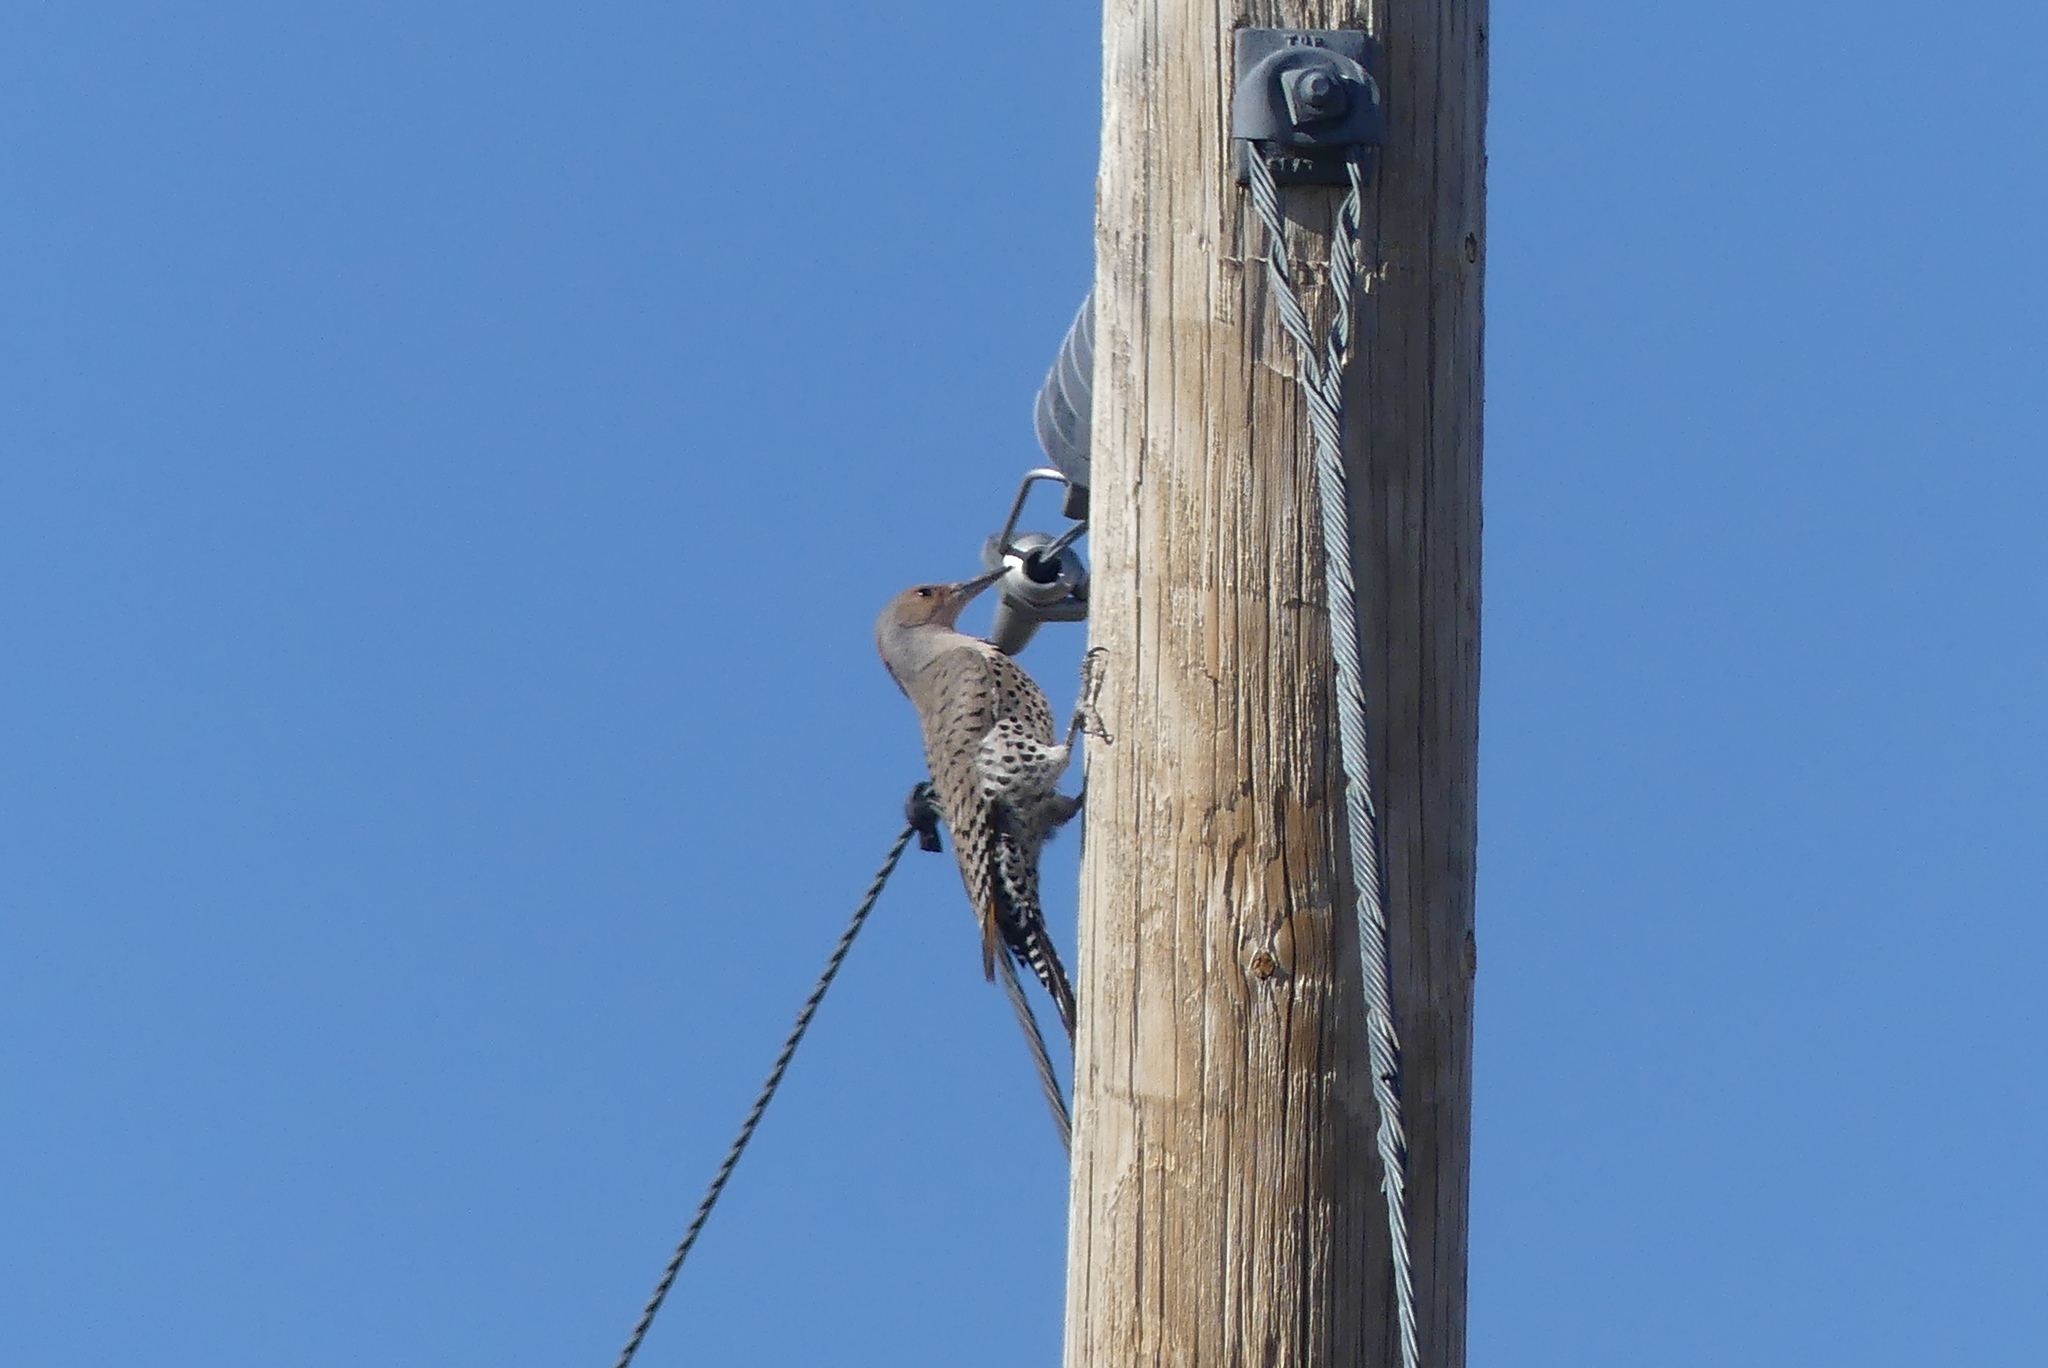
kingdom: Animalia
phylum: Chordata
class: Aves
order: Piciformes
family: Picidae
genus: Colaptes
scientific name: Colaptes auratus
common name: Northern flicker
